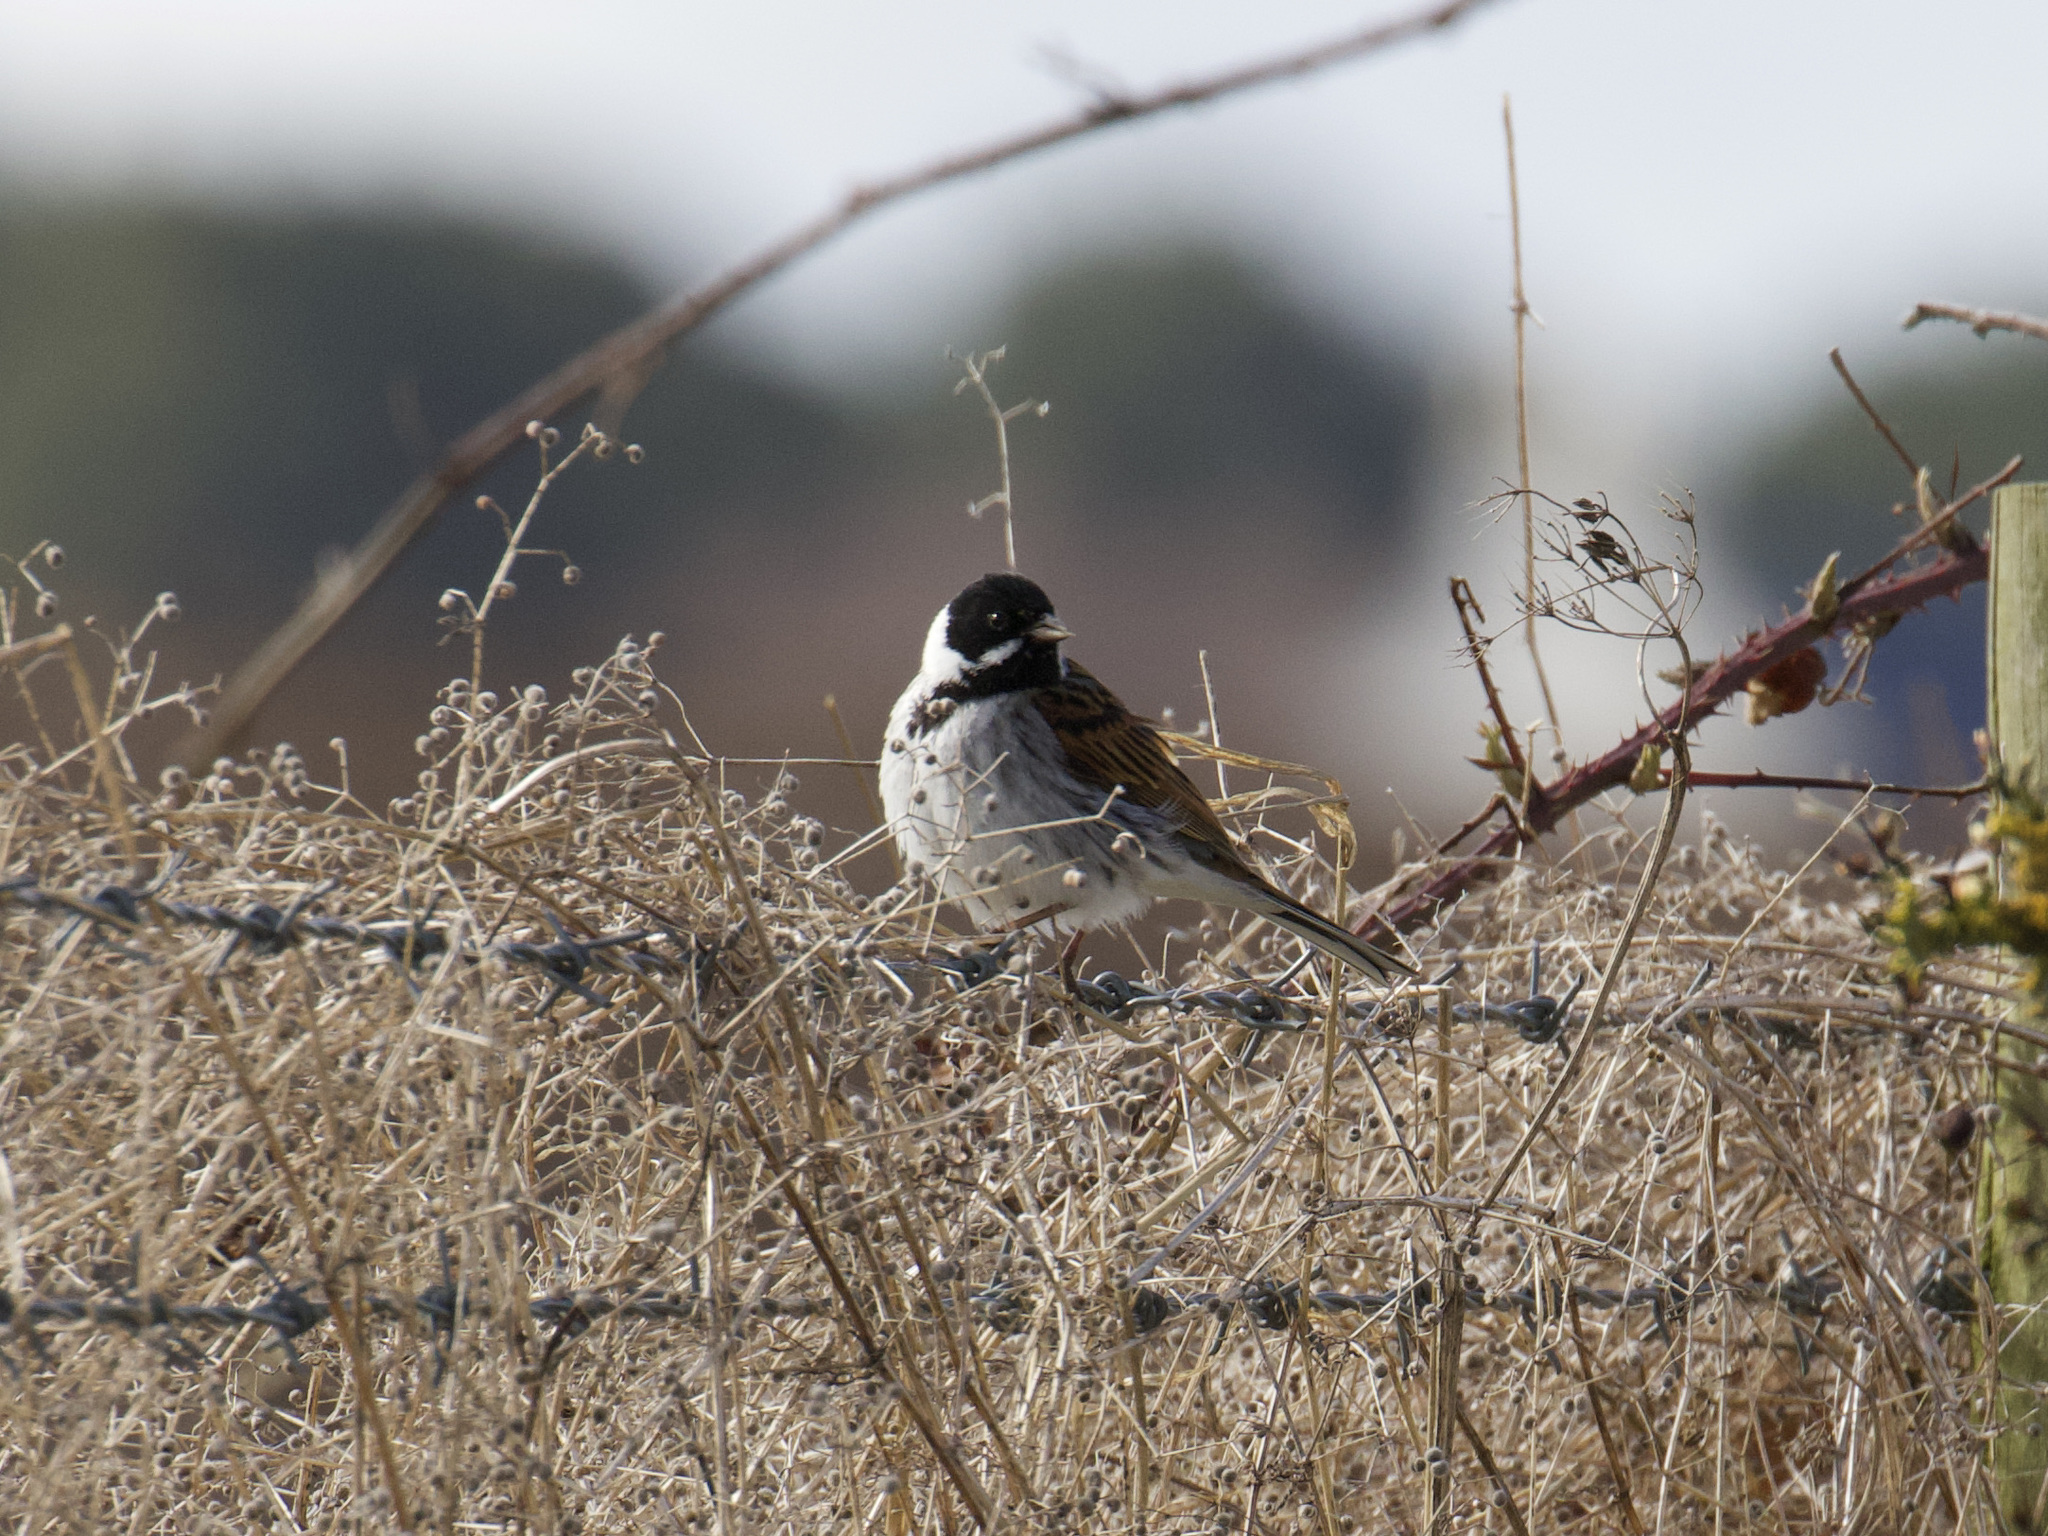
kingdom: Animalia
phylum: Chordata
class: Aves
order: Passeriformes
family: Emberizidae
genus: Emberiza
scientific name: Emberiza schoeniclus
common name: Reed bunting
